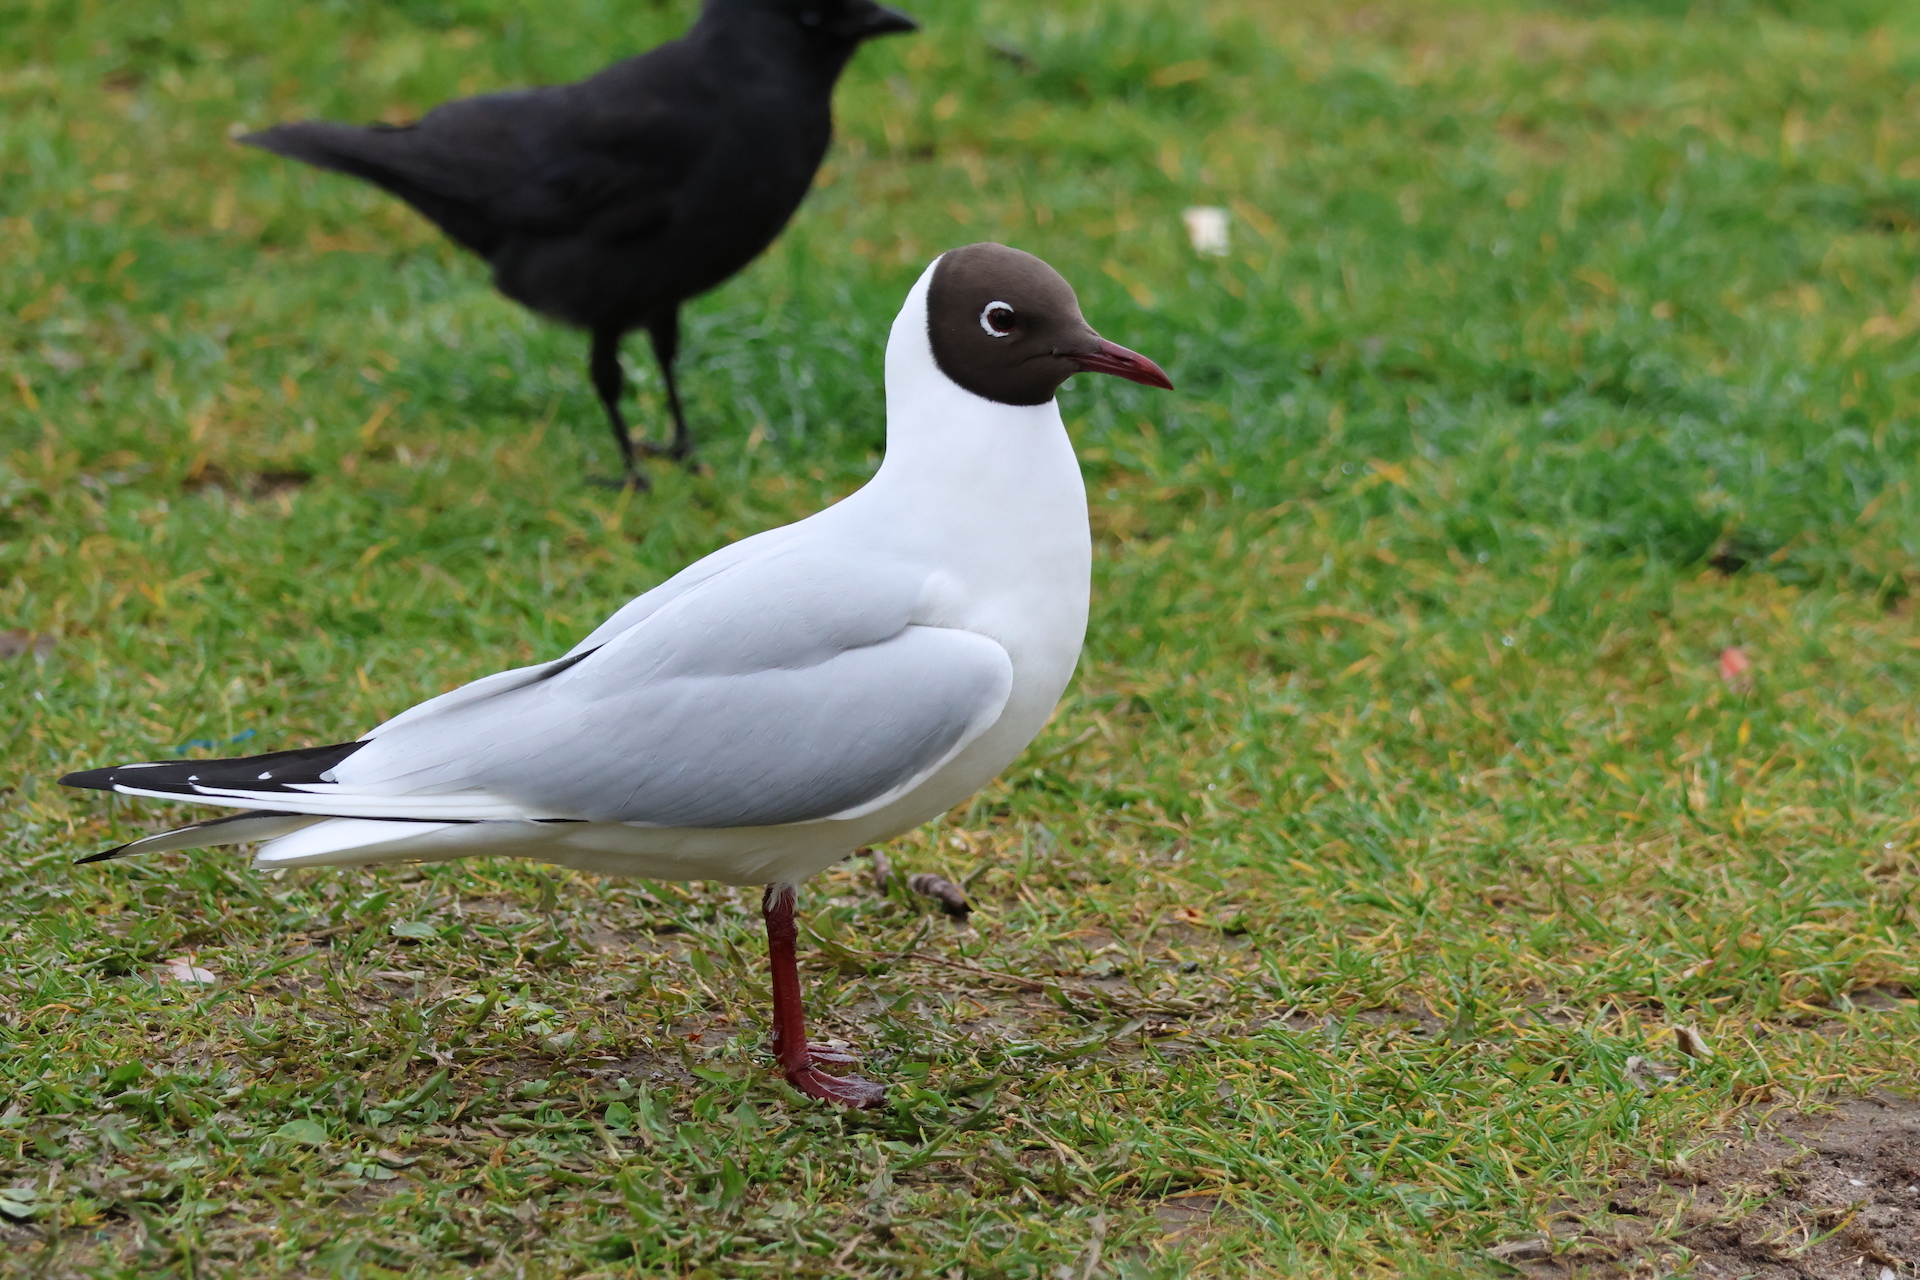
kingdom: Animalia
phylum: Chordata
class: Aves
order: Charadriiformes
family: Laridae
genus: Chroicocephalus
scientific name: Chroicocephalus ridibundus
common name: Black-headed gull
